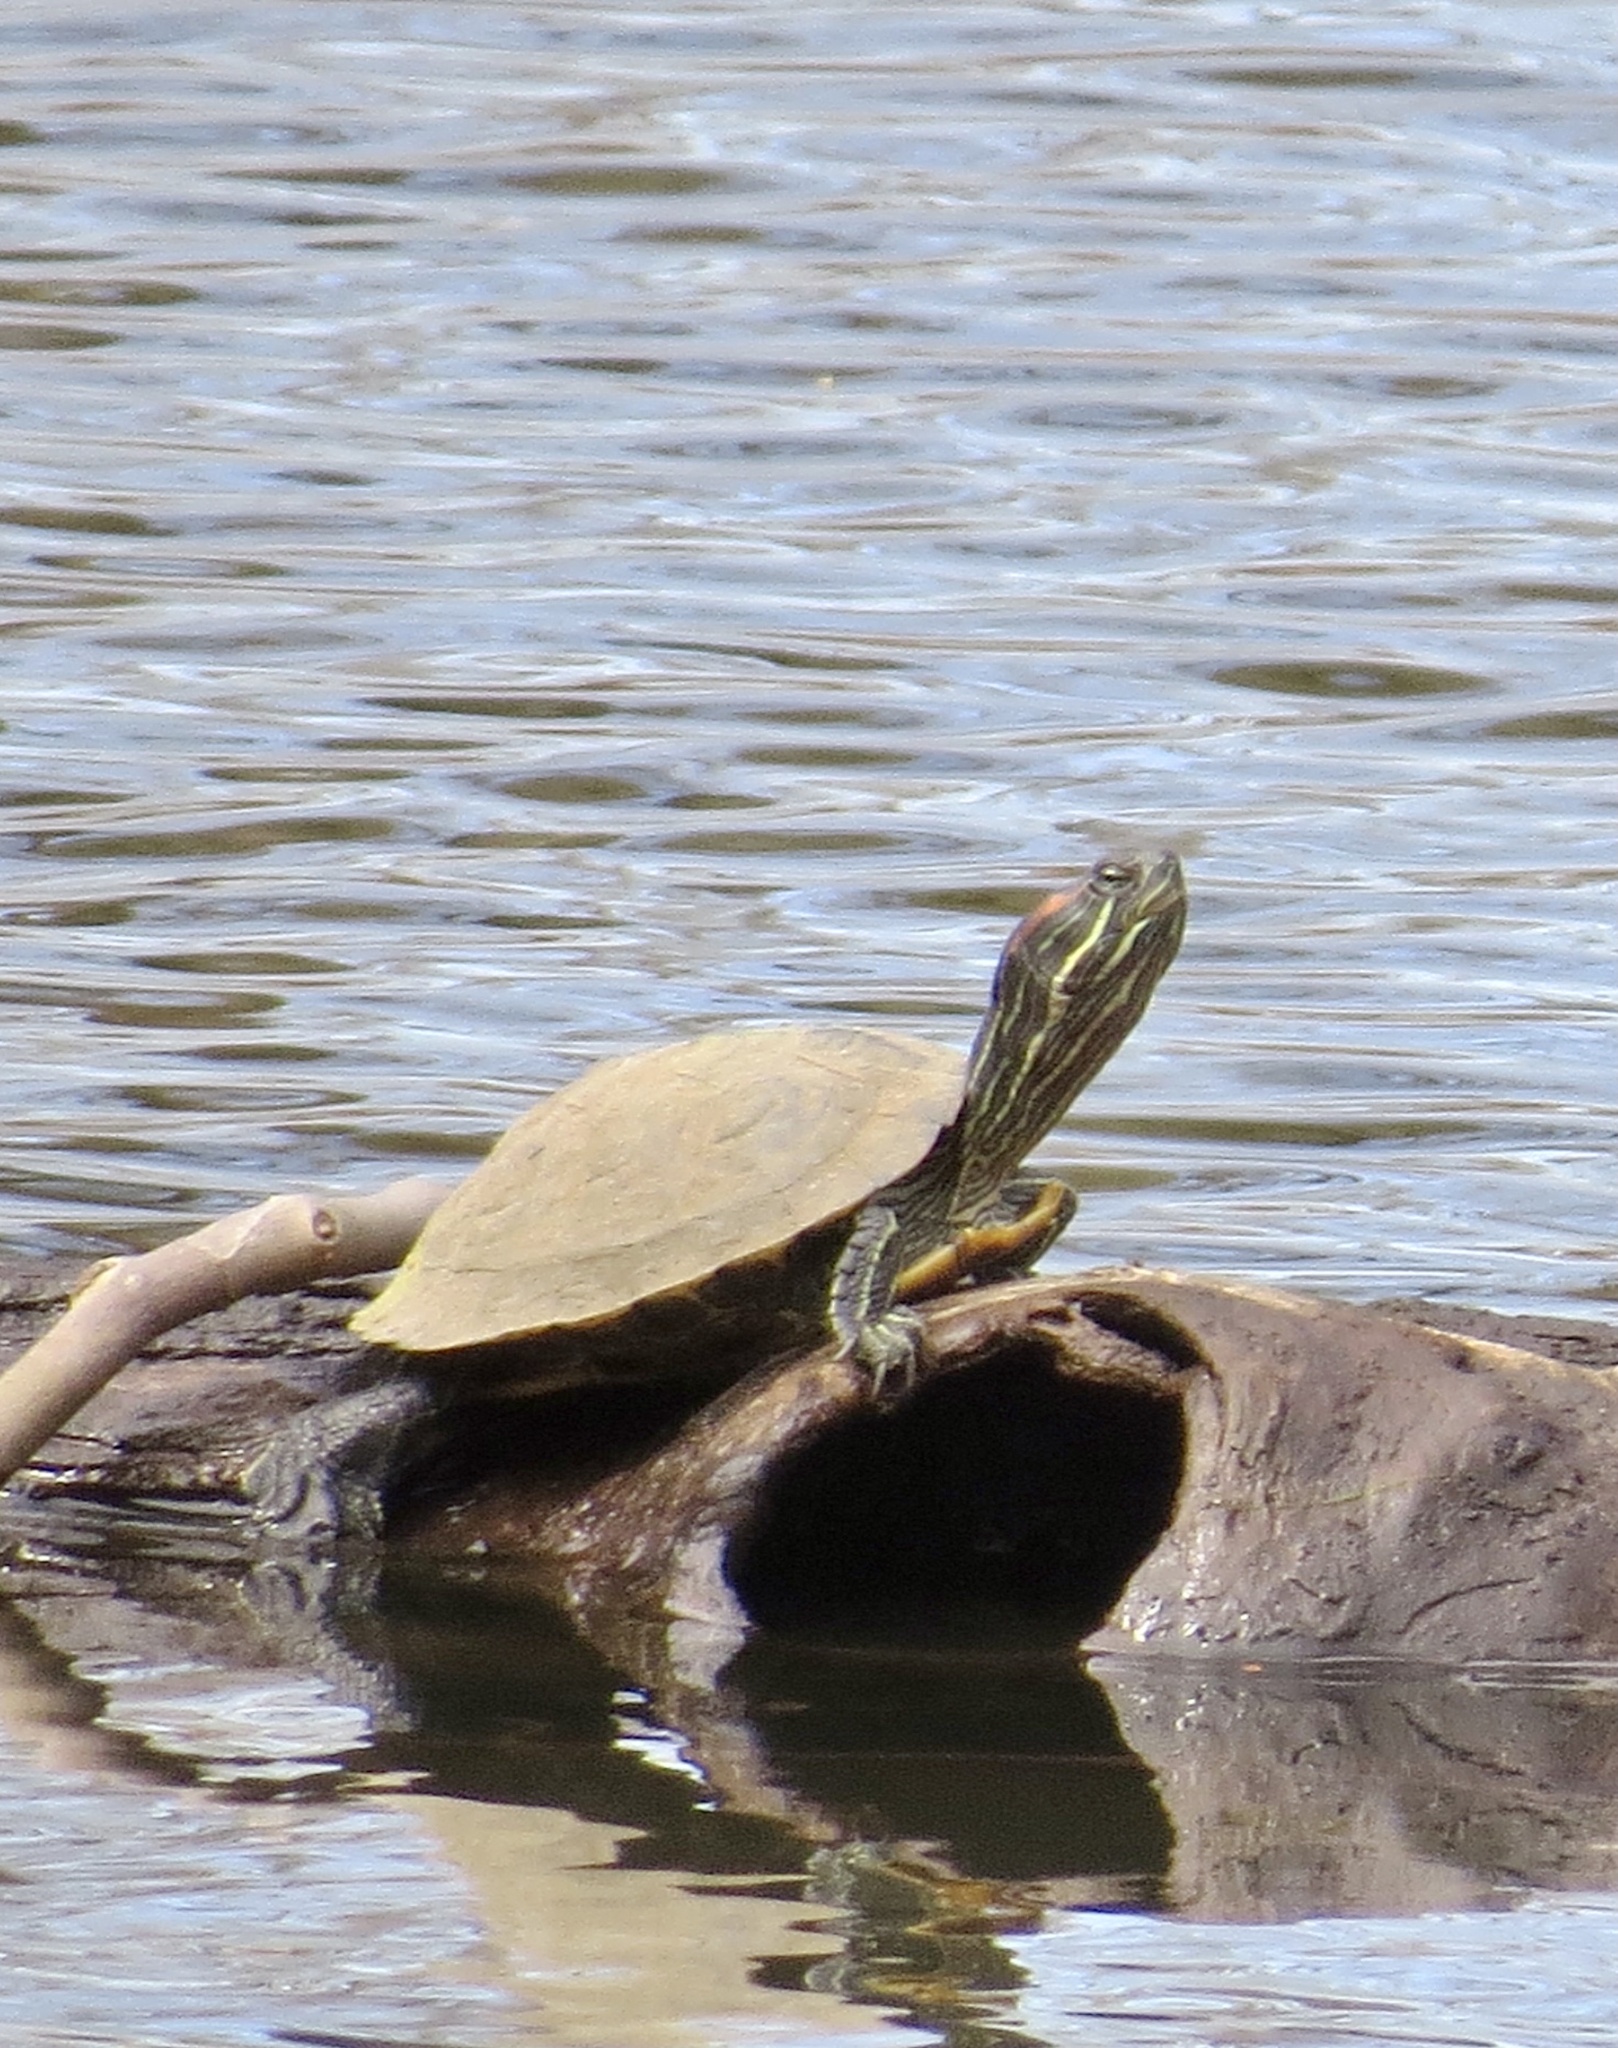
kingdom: Animalia
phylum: Chordata
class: Testudines
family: Emydidae
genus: Trachemys
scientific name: Trachemys scripta
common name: Slider
